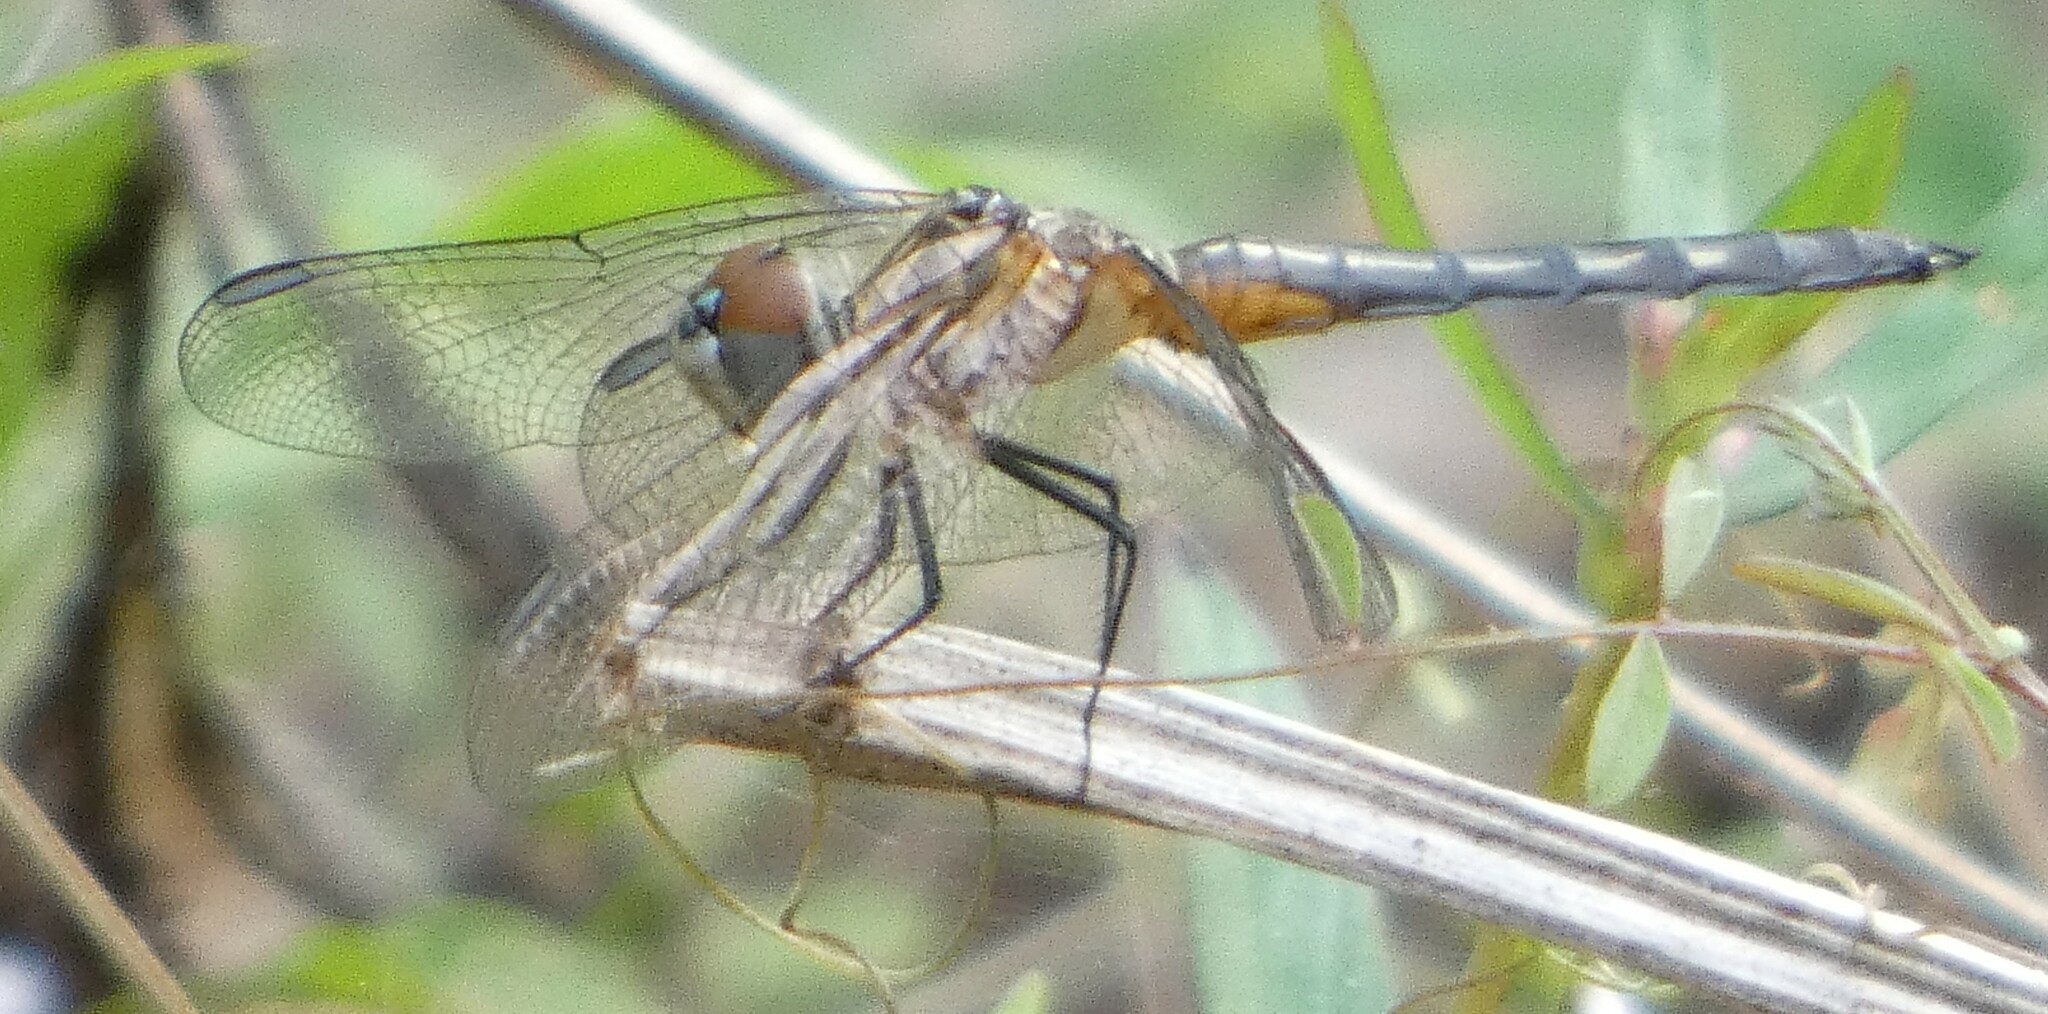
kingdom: Animalia
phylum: Arthropoda
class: Insecta
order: Odonata
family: Libellulidae
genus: Pachydiplax
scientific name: Pachydiplax longipennis
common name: Blue dasher
